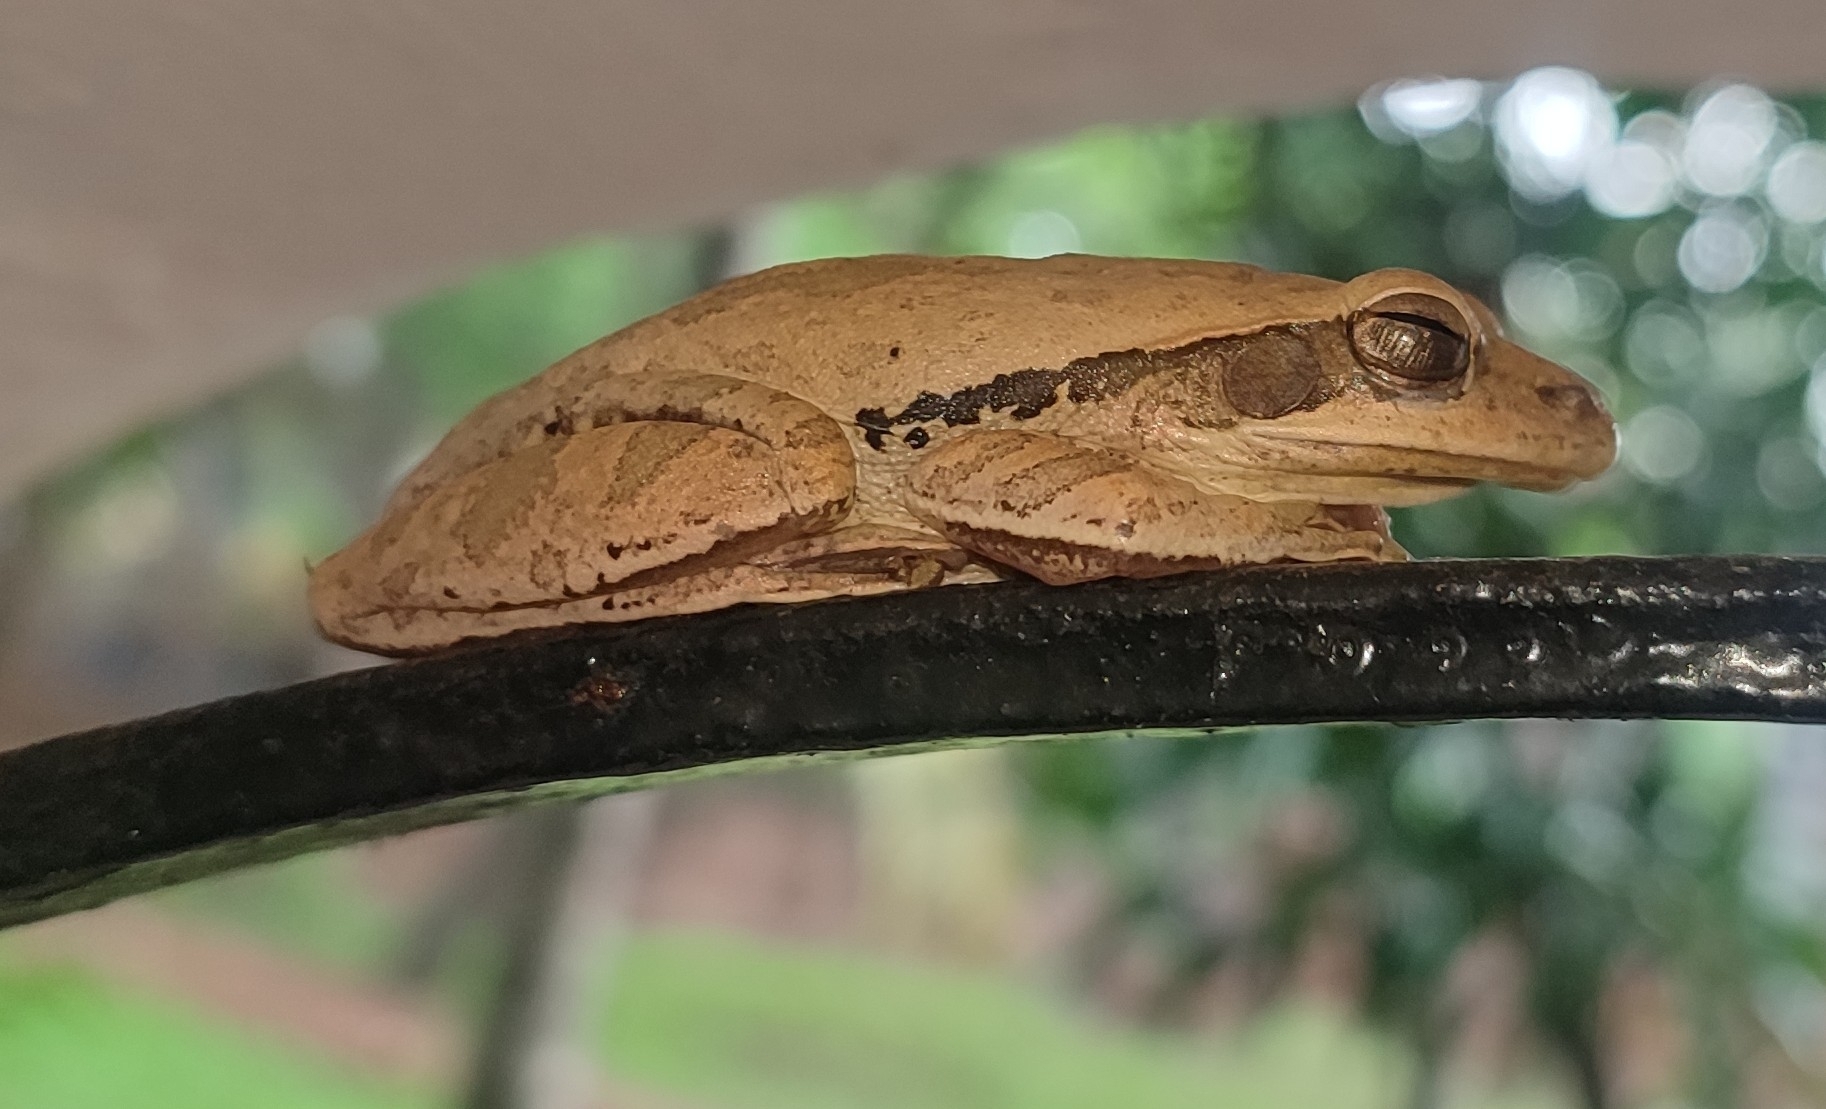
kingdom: Animalia
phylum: Chordata
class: Amphibia
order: Anura
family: Rhacophoridae
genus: Polypedates
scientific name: Polypedates maculatus
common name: Himalayan tree frog
